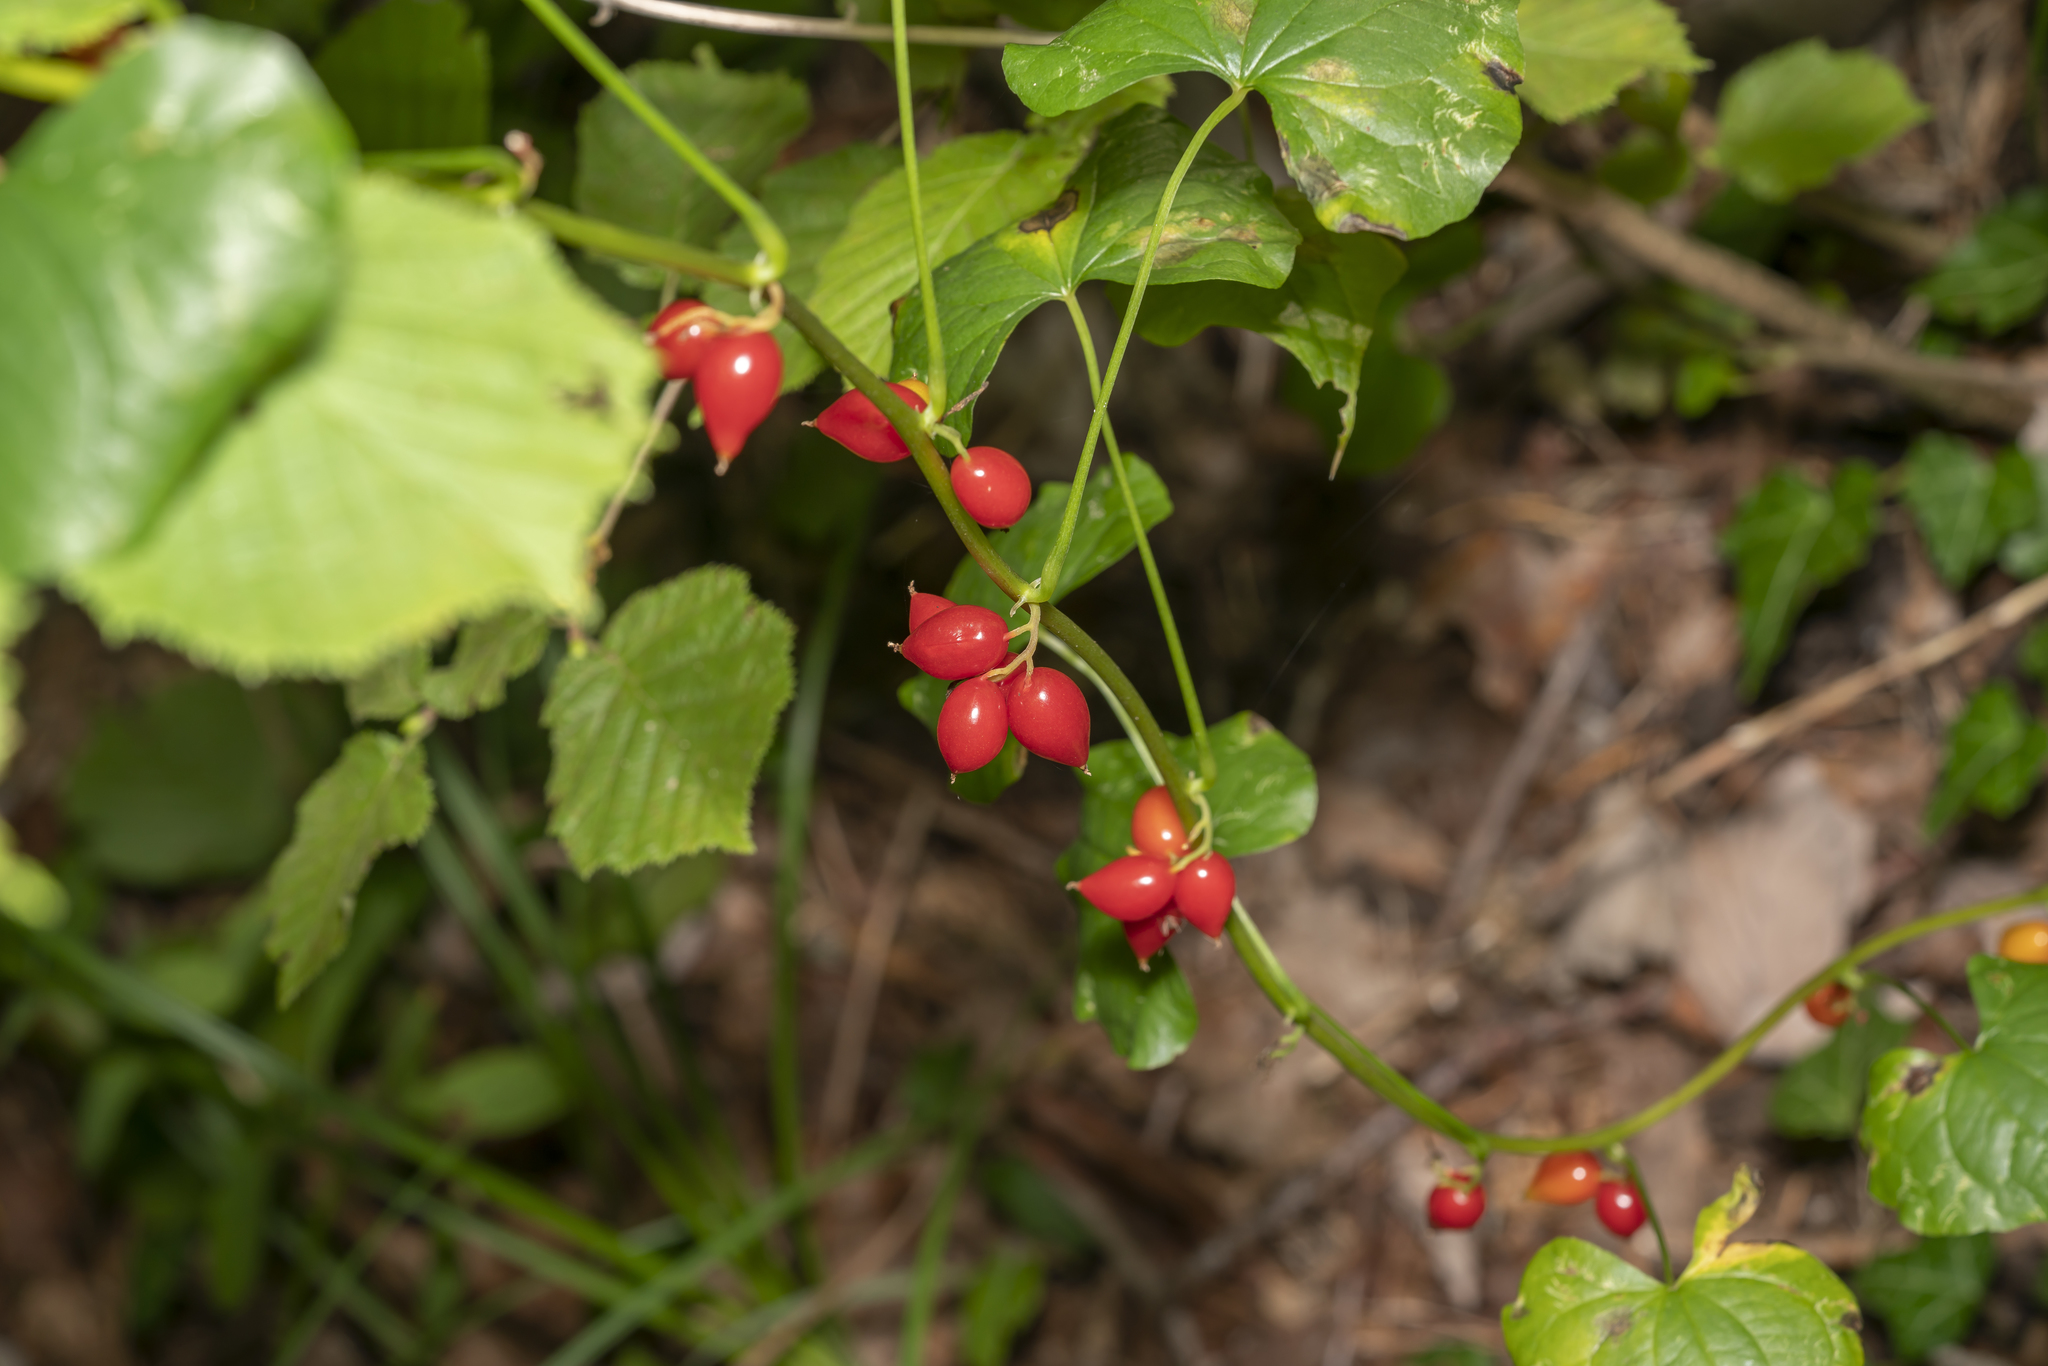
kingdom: Plantae
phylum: Tracheophyta
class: Liliopsida
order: Dioscoreales
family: Dioscoreaceae
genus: Dioscorea
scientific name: Dioscorea communis
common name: Black-bindweed
